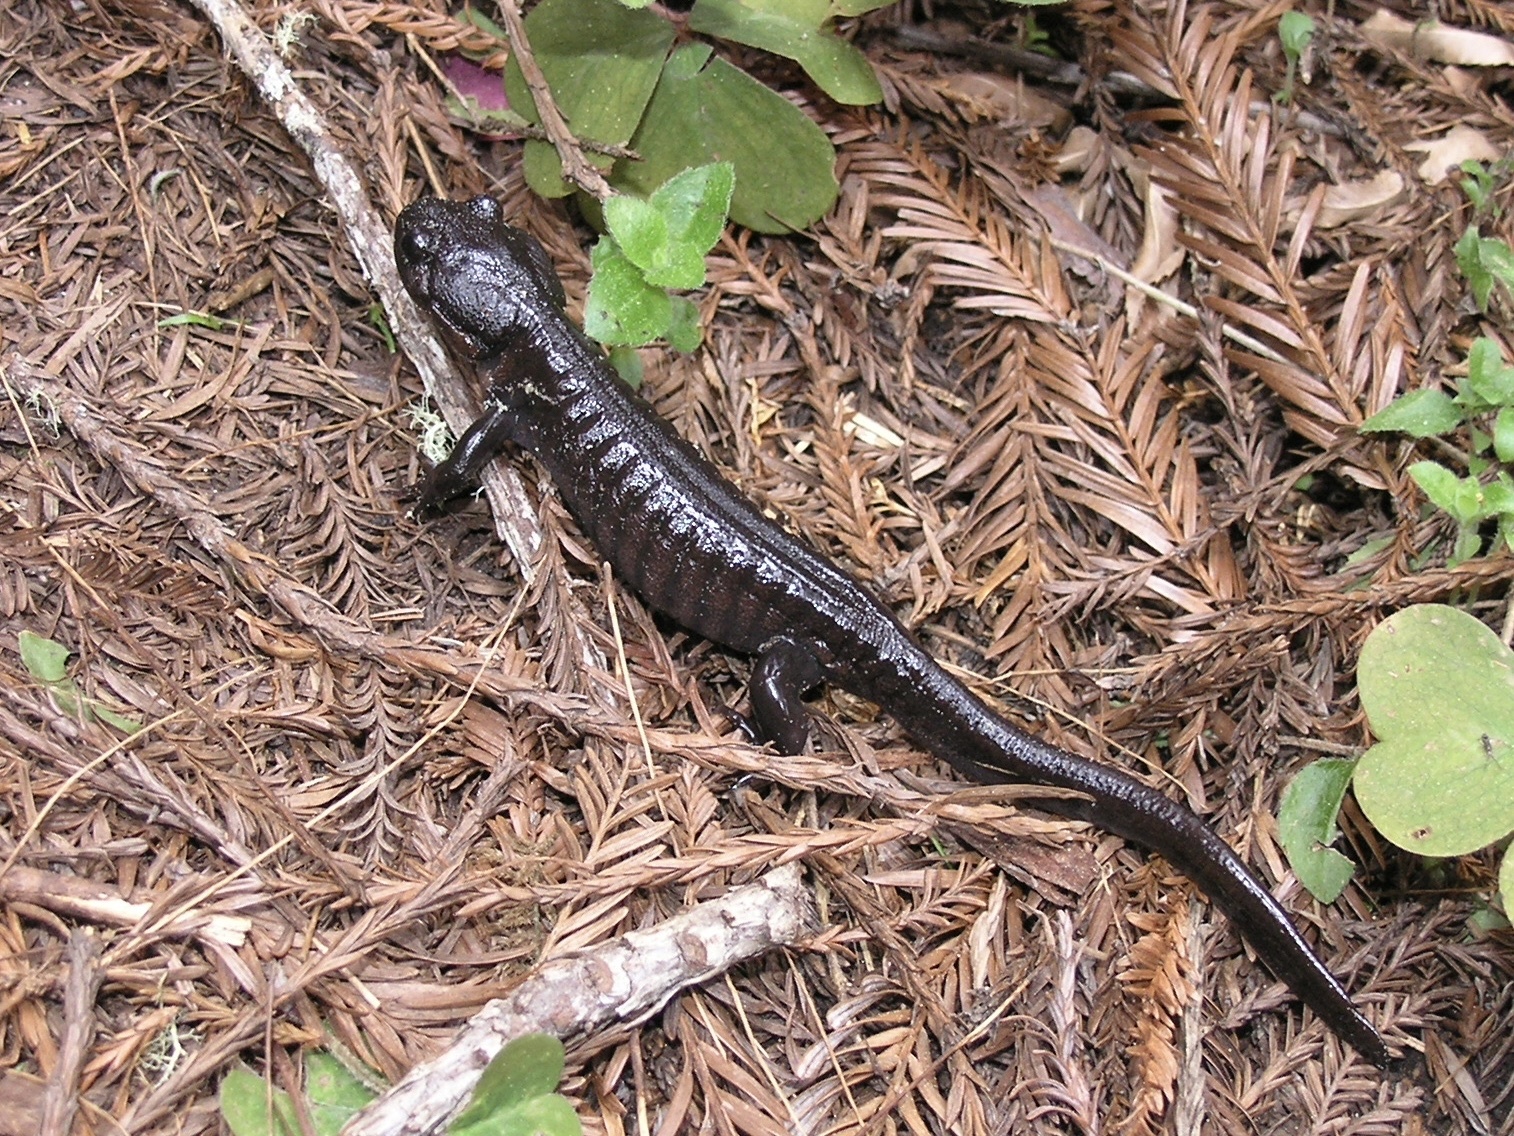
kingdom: Animalia
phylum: Chordata
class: Amphibia
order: Caudata
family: Ambystomatidae
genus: Ambystoma
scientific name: Ambystoma gracile
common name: Northwestern salamander
